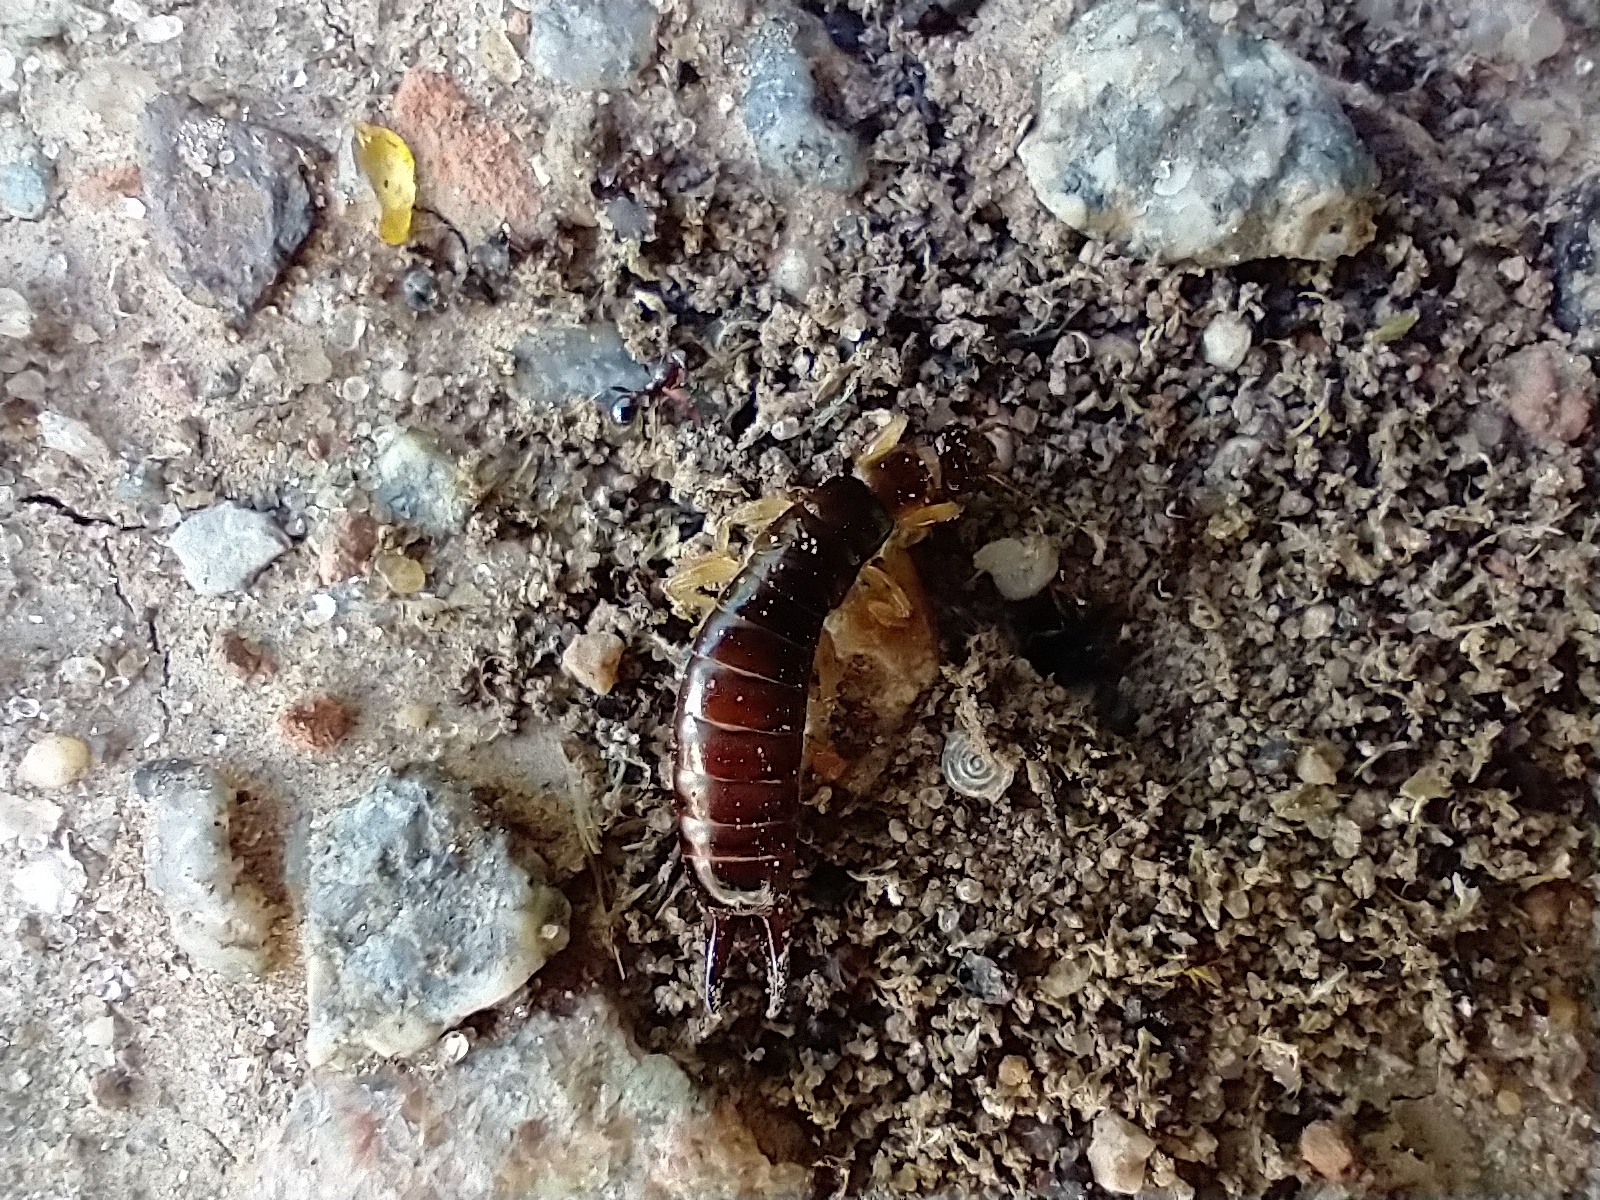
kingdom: Animalia
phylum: Arthropoda
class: Insecta
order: Dermaptera
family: Anisolabididae
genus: Euborellia
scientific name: Euborellia annulipes
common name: Ringlegged earwig
